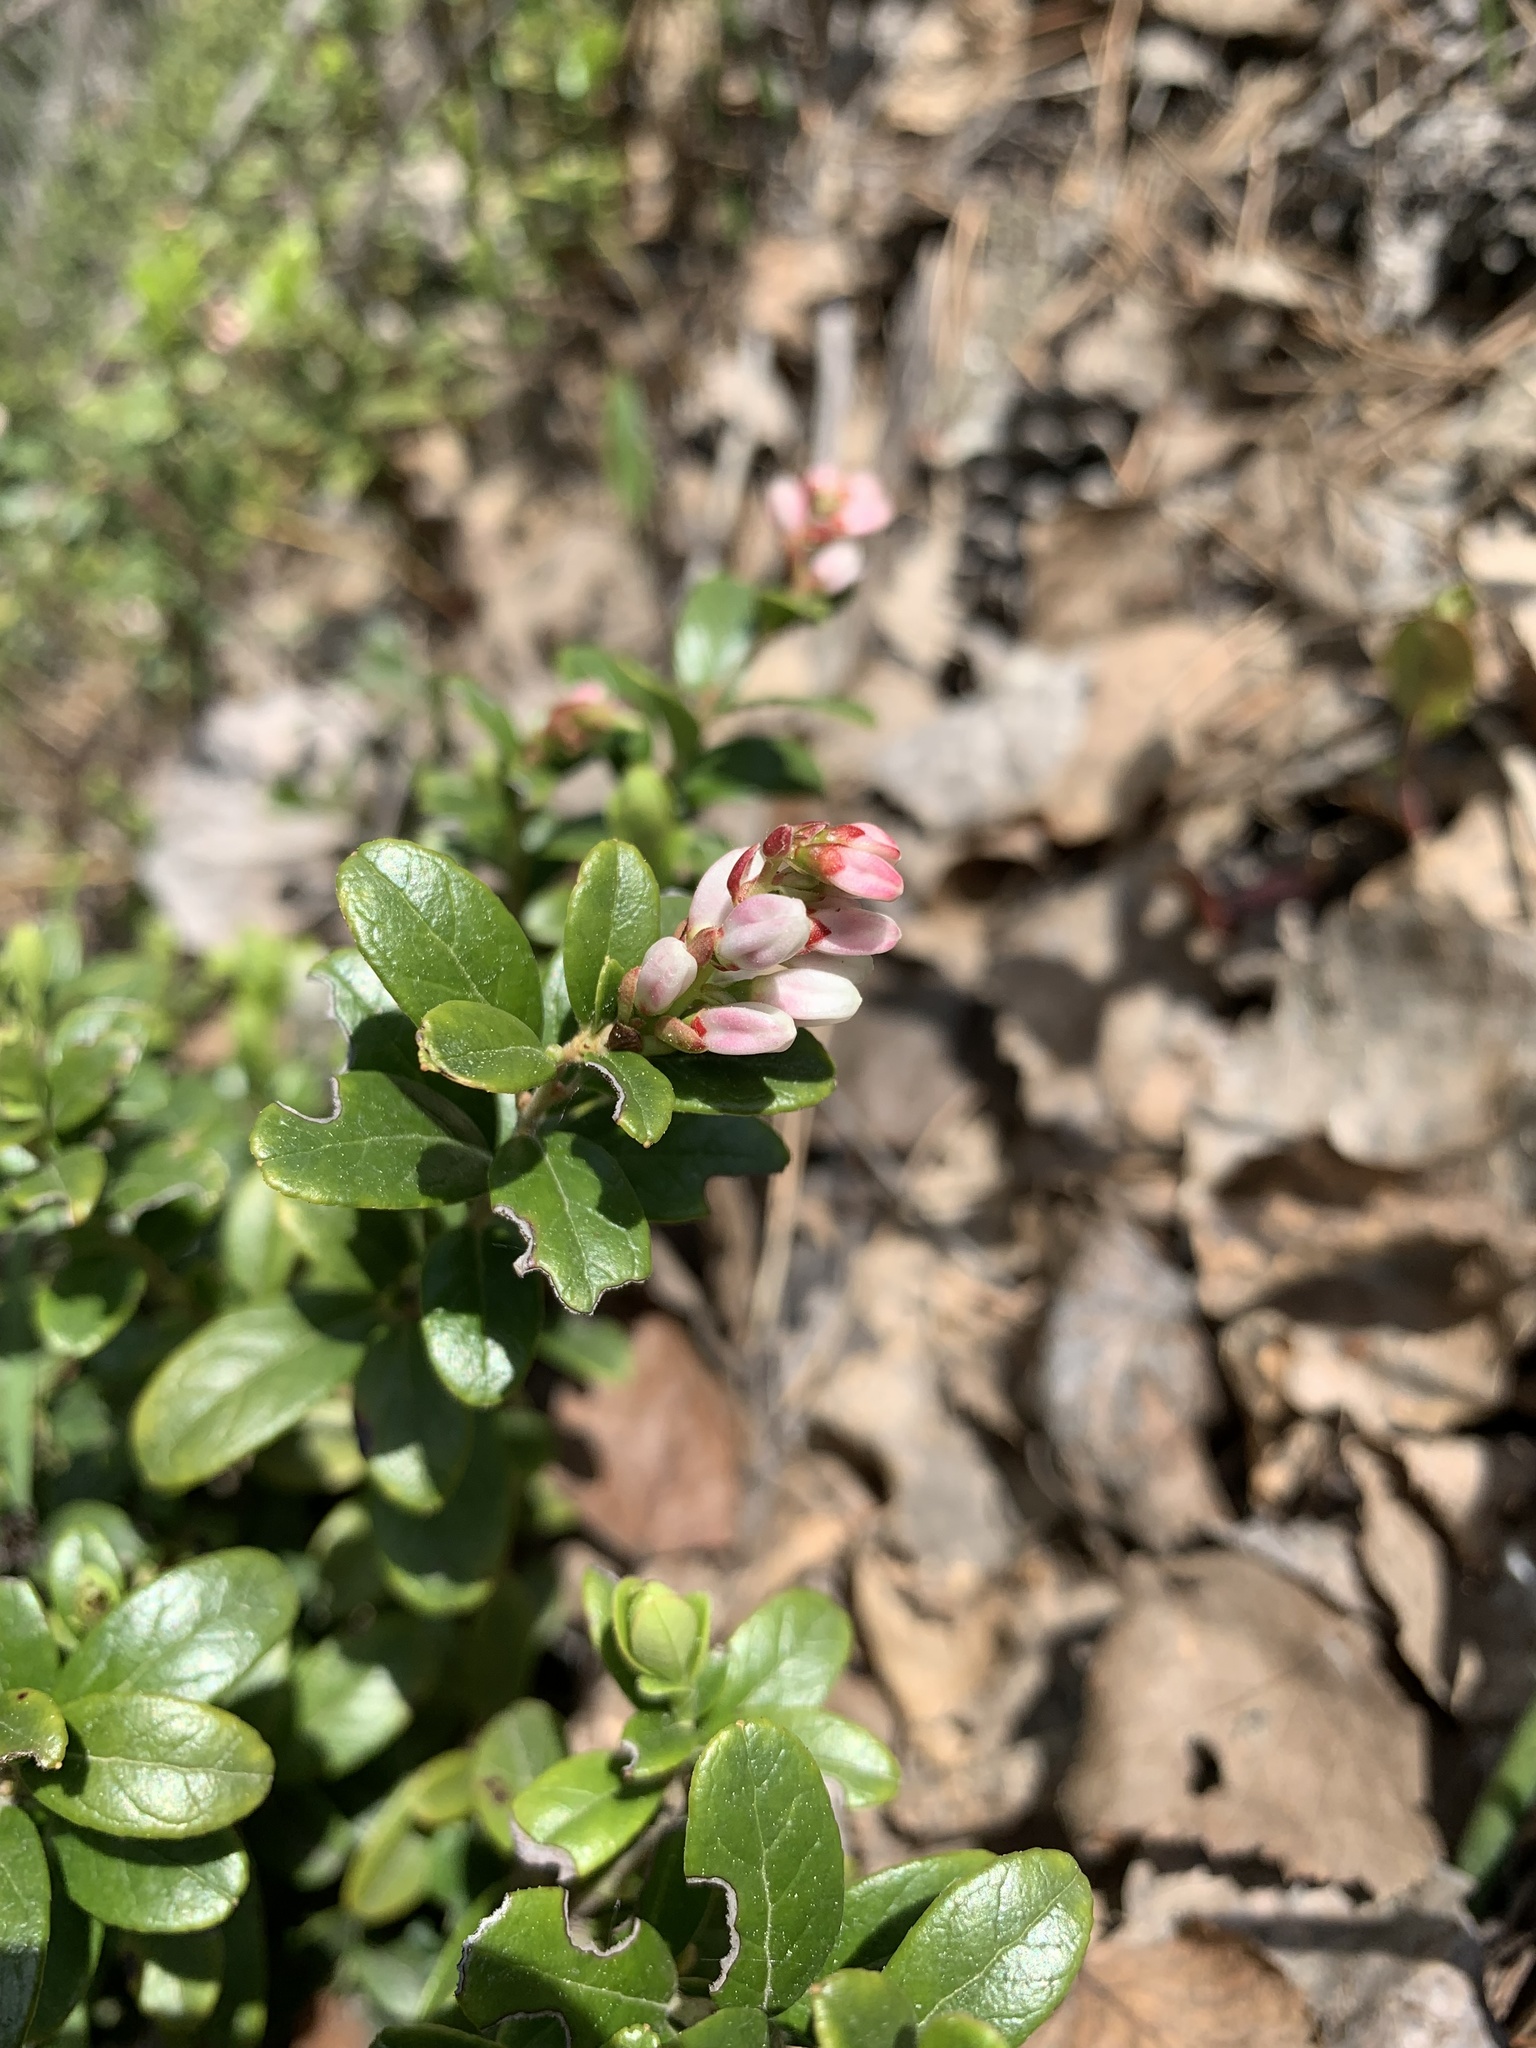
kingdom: Plantae
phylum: Tracheophyta
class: Magnoliopsida
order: Ericales
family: Ericaceae
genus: Vaccinium
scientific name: Vaccinium vitis-idaea
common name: Cowberry
